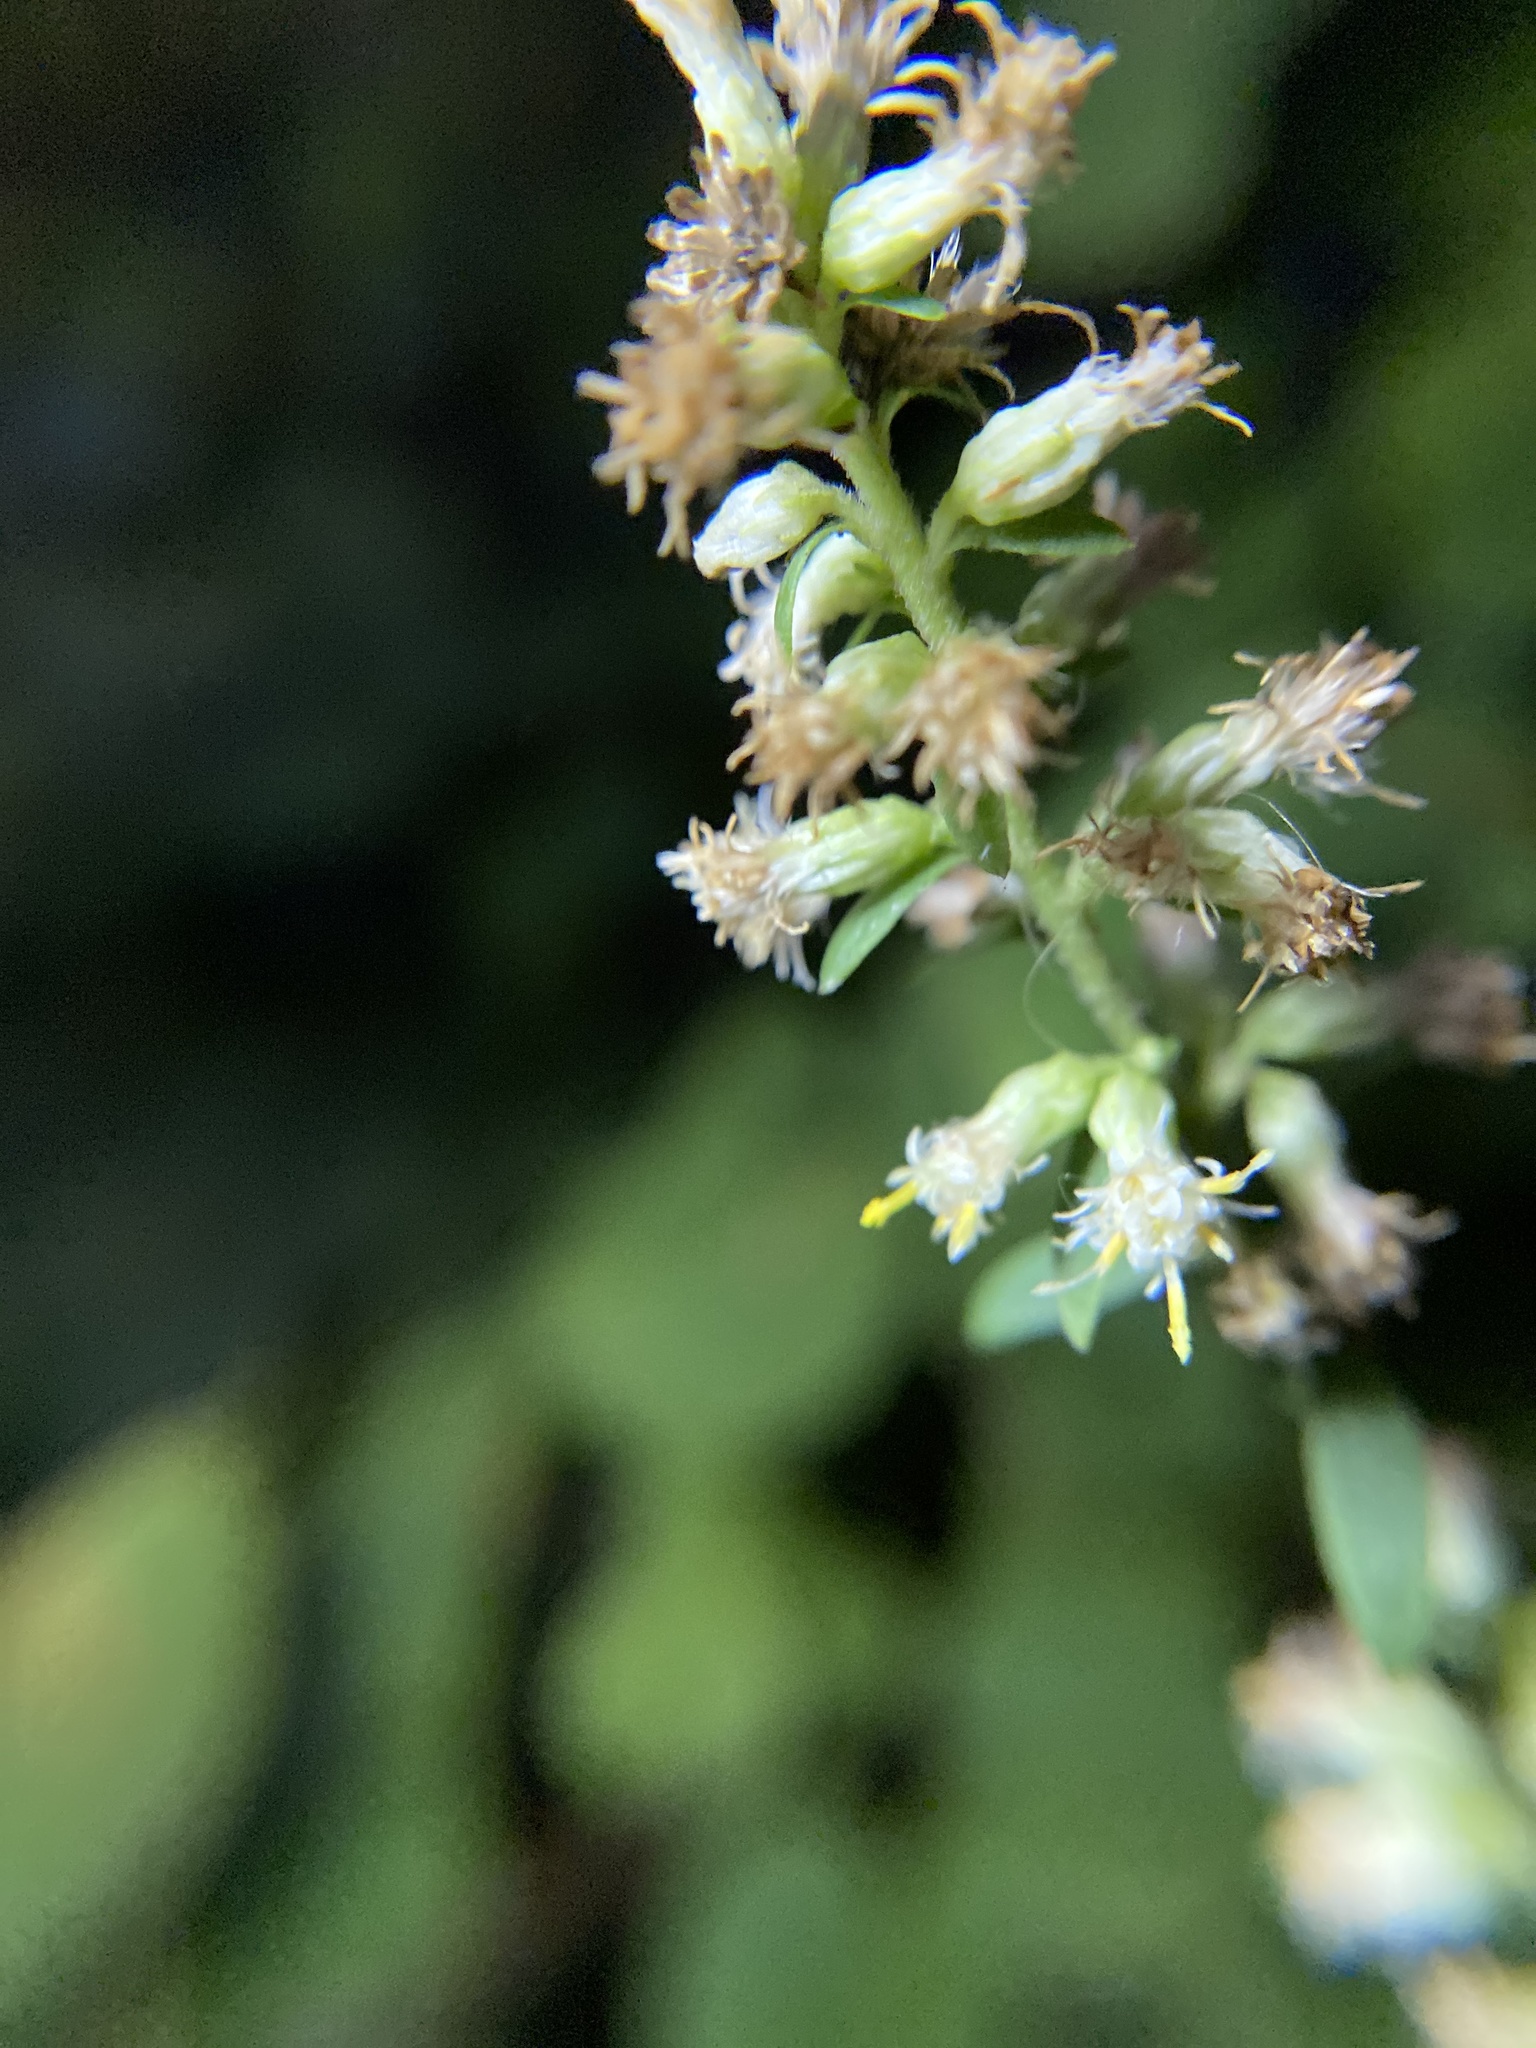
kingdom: Plantae
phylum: Tracheophyta
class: Magnoliopsida
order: Asterales
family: Asteraceae
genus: Solidago
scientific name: Solidago bicolor
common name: Silverrod
